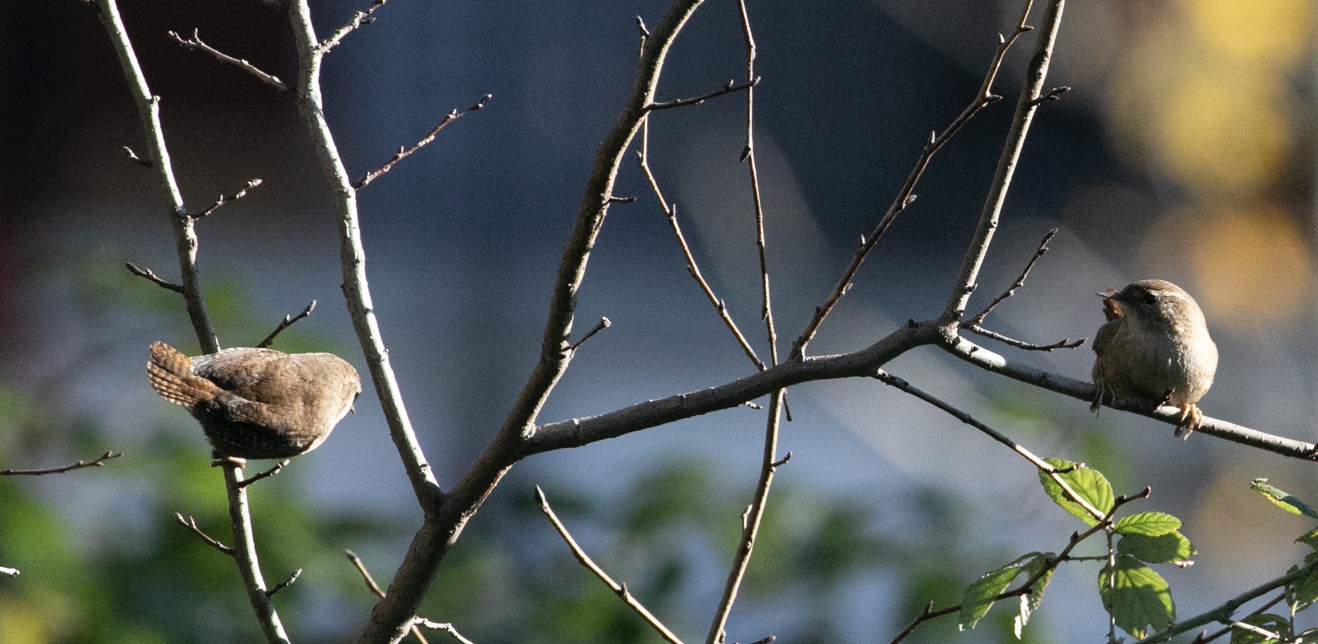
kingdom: Animalia
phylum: Chordata
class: Aves
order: Passeriformes
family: Troglodytidae
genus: Troglodytes
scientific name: Troglodytes troglodytes
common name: Eurasian wren
